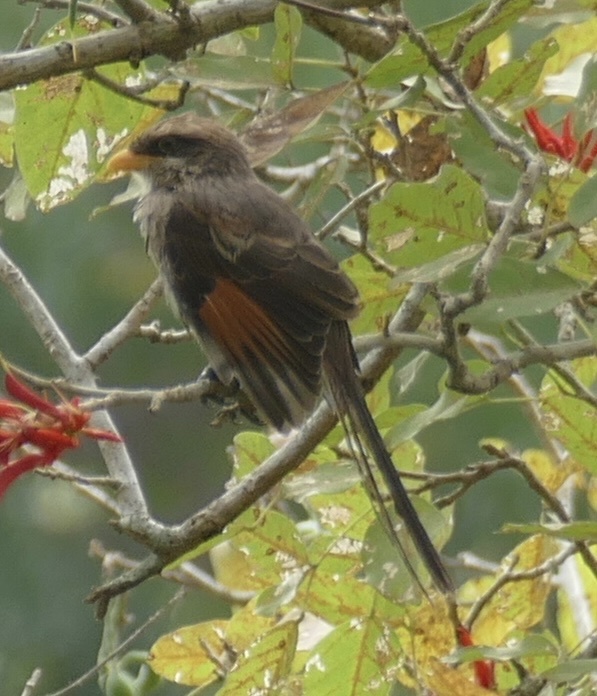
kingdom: Animalia
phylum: Chordata
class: Aves
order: Passeriformes
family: Laniidae
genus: Corvinella
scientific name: Corvinella corvina
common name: Yellow-billed shrike
